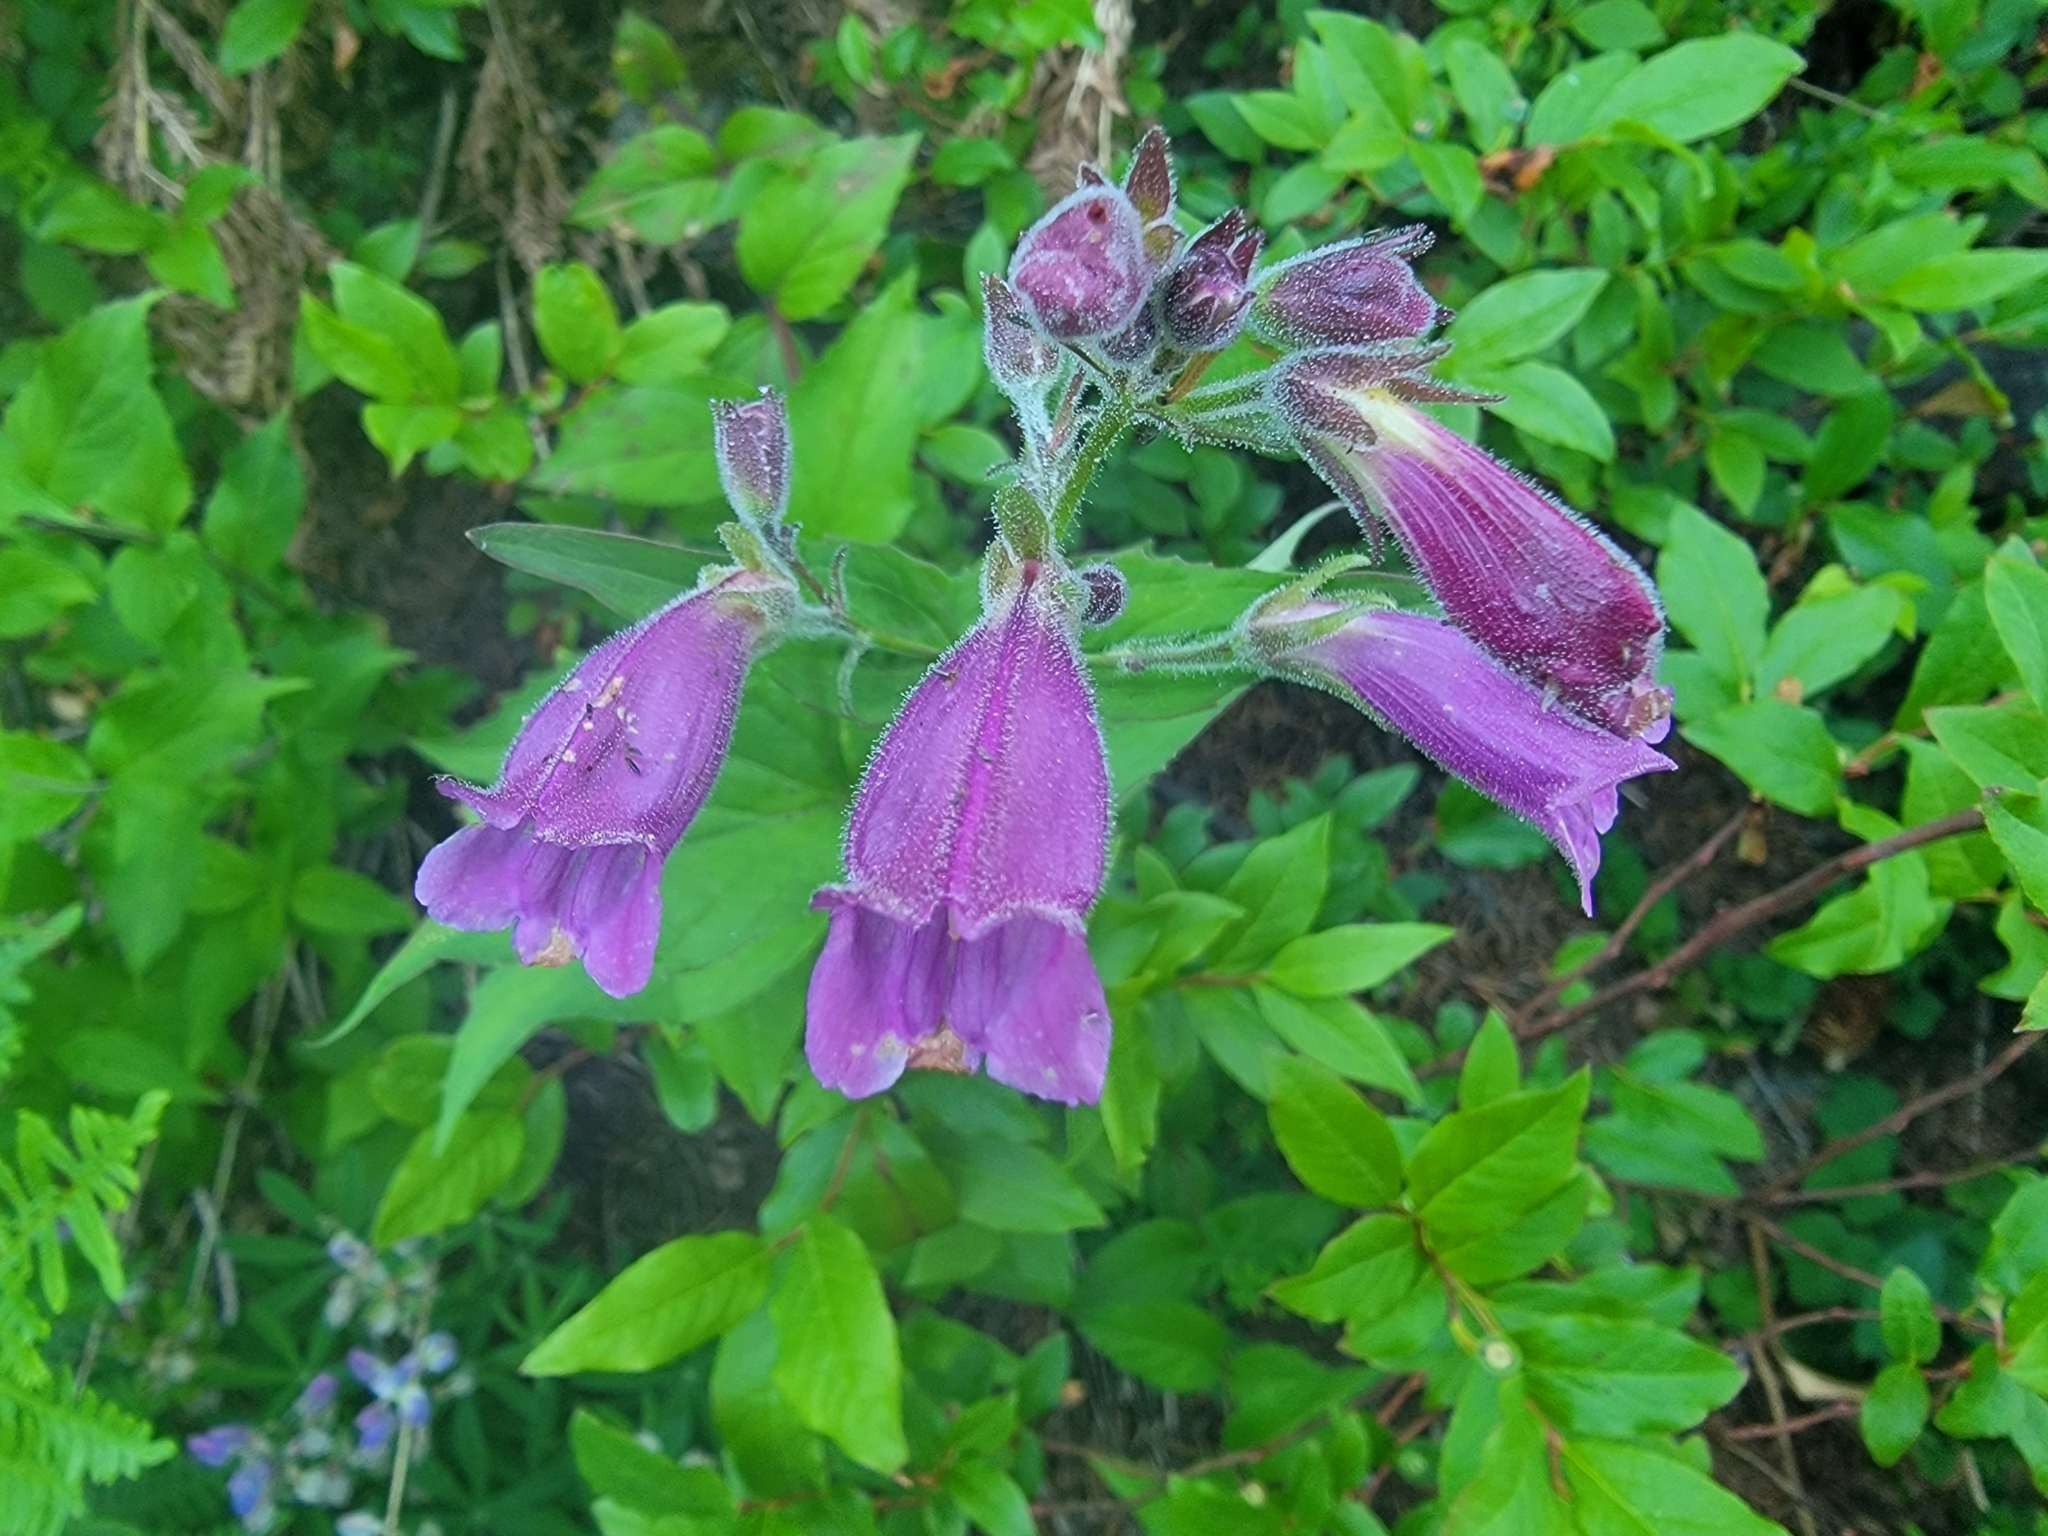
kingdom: Plantae
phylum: Tracheophyta
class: Magnoliopsida
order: Lamiales
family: Plantaginaceae
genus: Nothochelone
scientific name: Nothochelone nemorosa
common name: Woodland beardtongue
